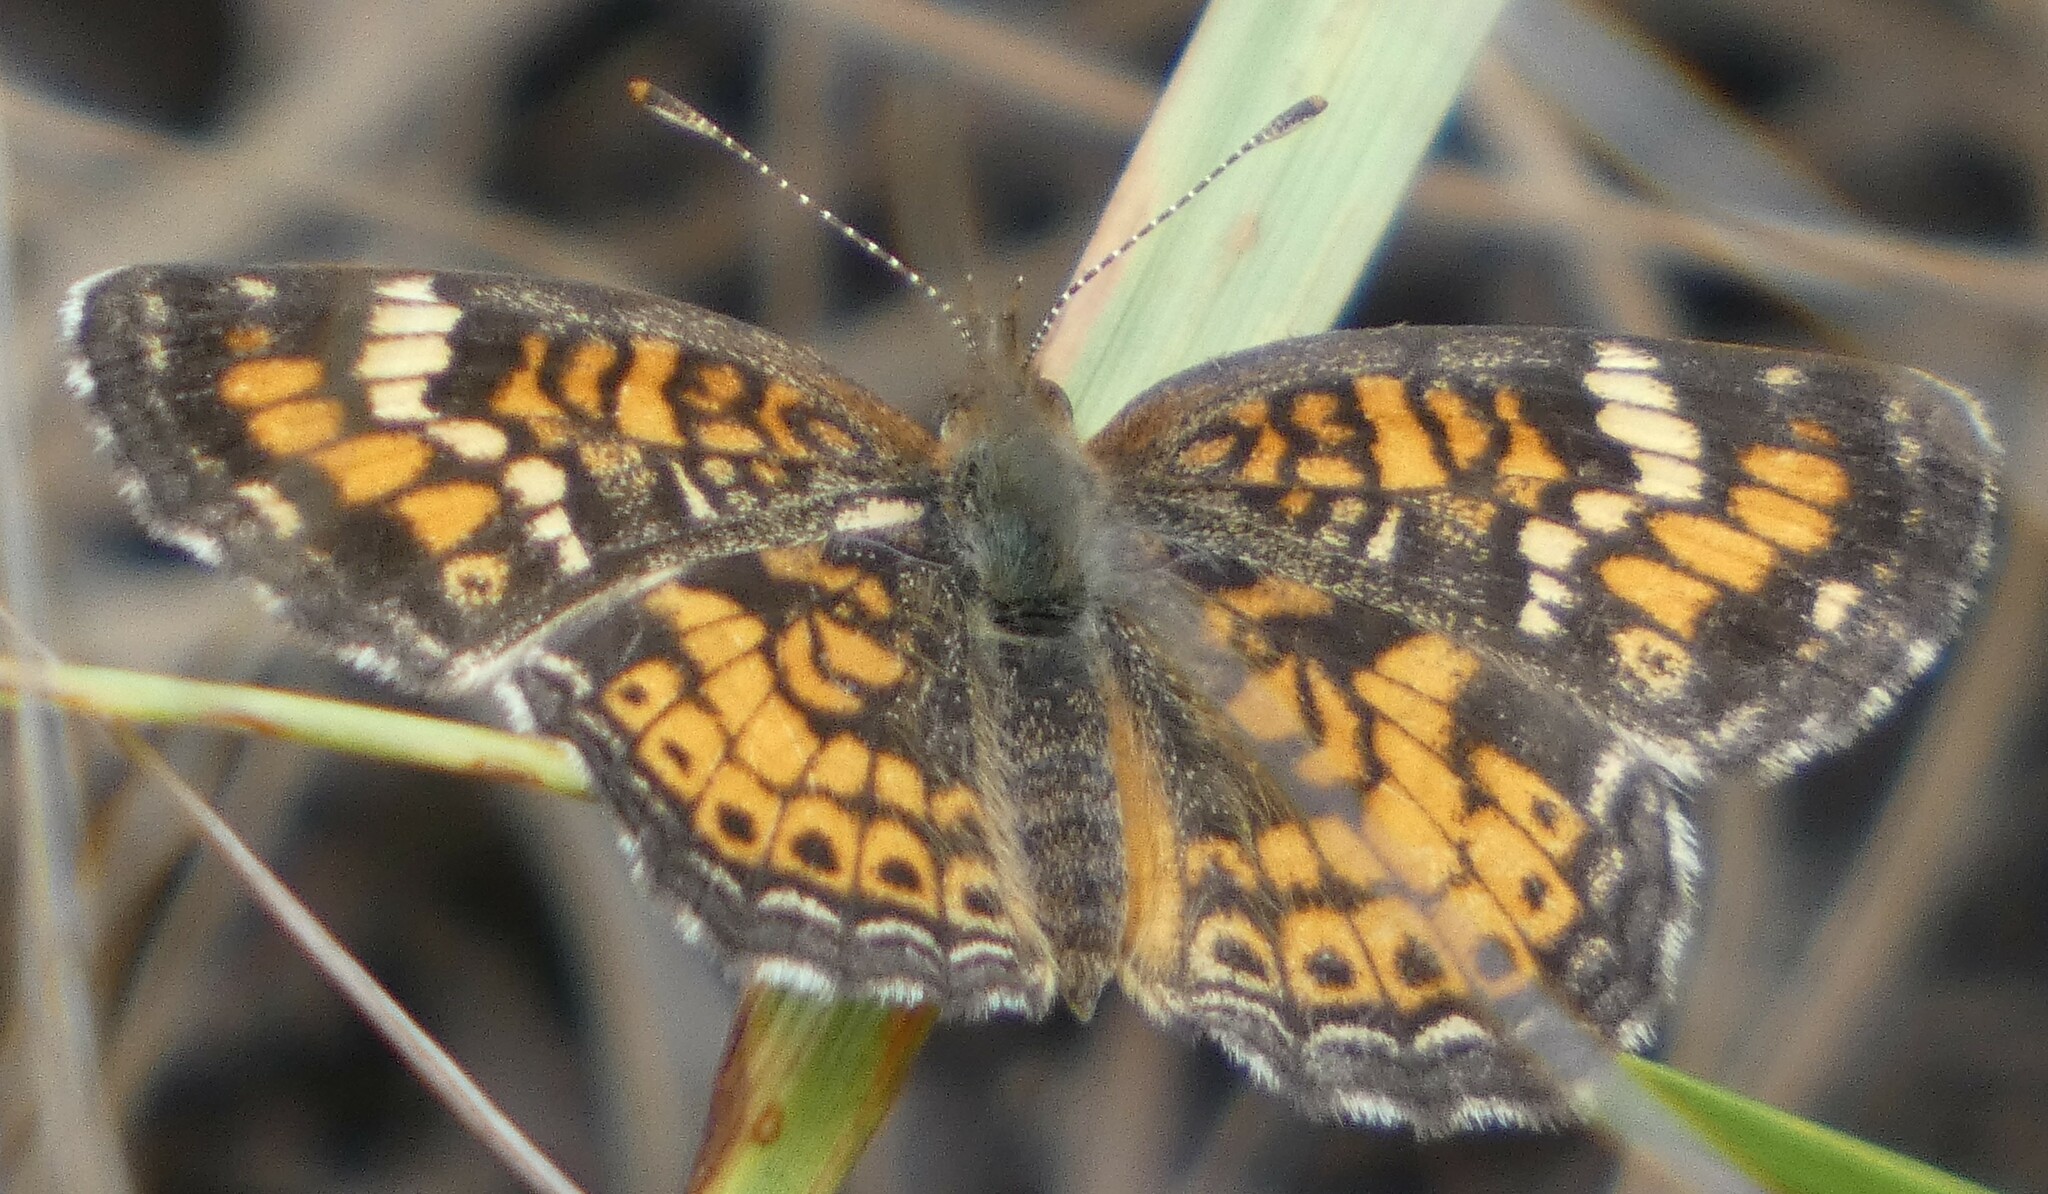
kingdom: Animalia
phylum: Arthropoda
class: Insecta
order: Lepidoptera
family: Nymphalidae
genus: Phyciodes
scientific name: Phyciodes phaon
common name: Phaon crescent
